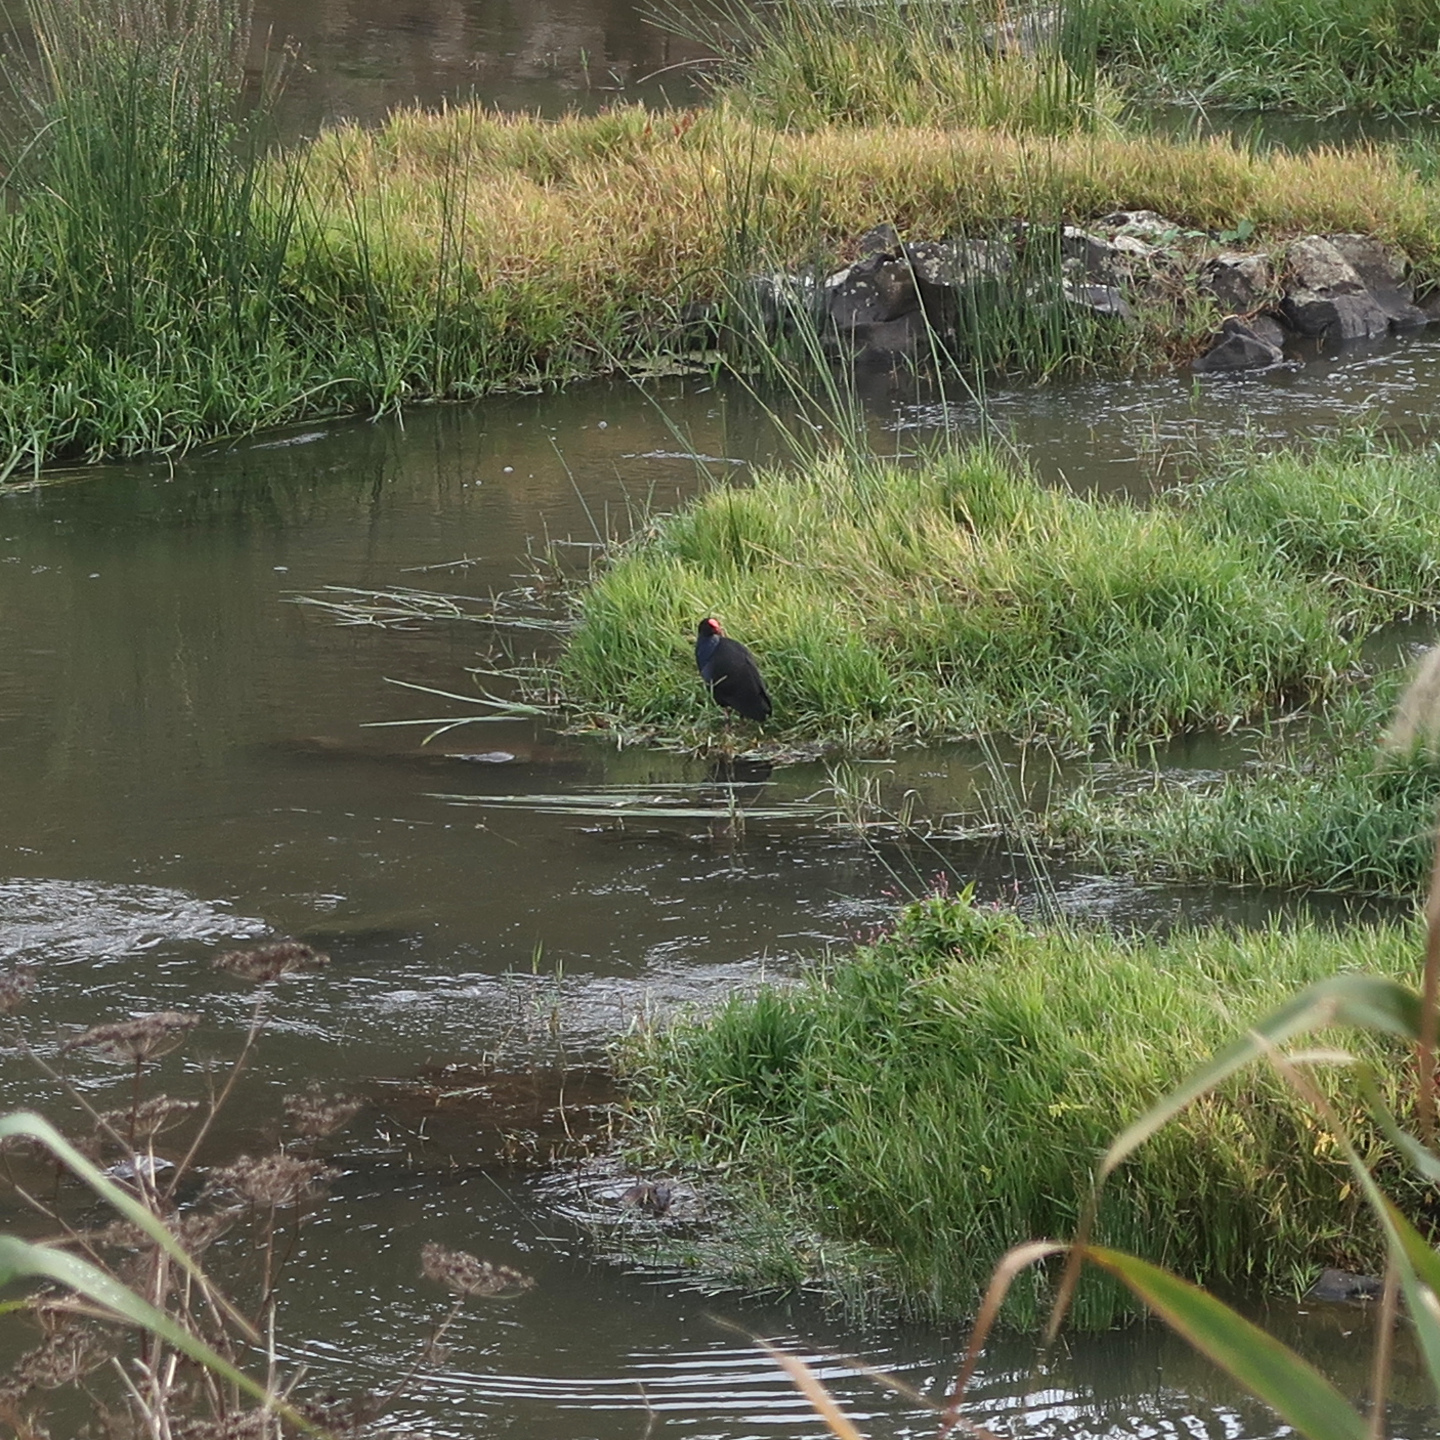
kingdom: Animalia
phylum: Chordata
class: Aves
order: Gruiformes
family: Rallidae
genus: Porphyrio
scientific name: Porphyrio melanotus
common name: Australasian swamphen
